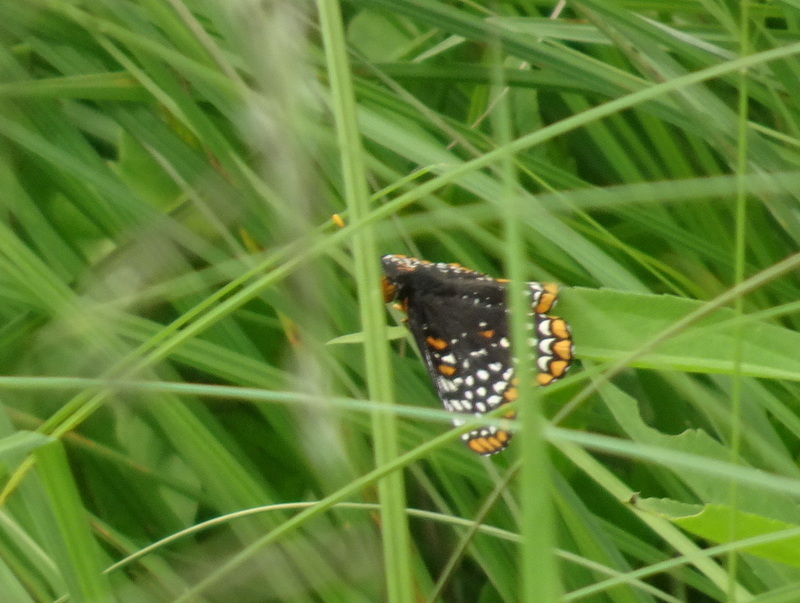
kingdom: Animalia
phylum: Arthropoda
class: Insecta
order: Lepidoptera
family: Nymphalidae
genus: Euphydryas
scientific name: Euphydryas phaeton
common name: Baltimore checkerspot
